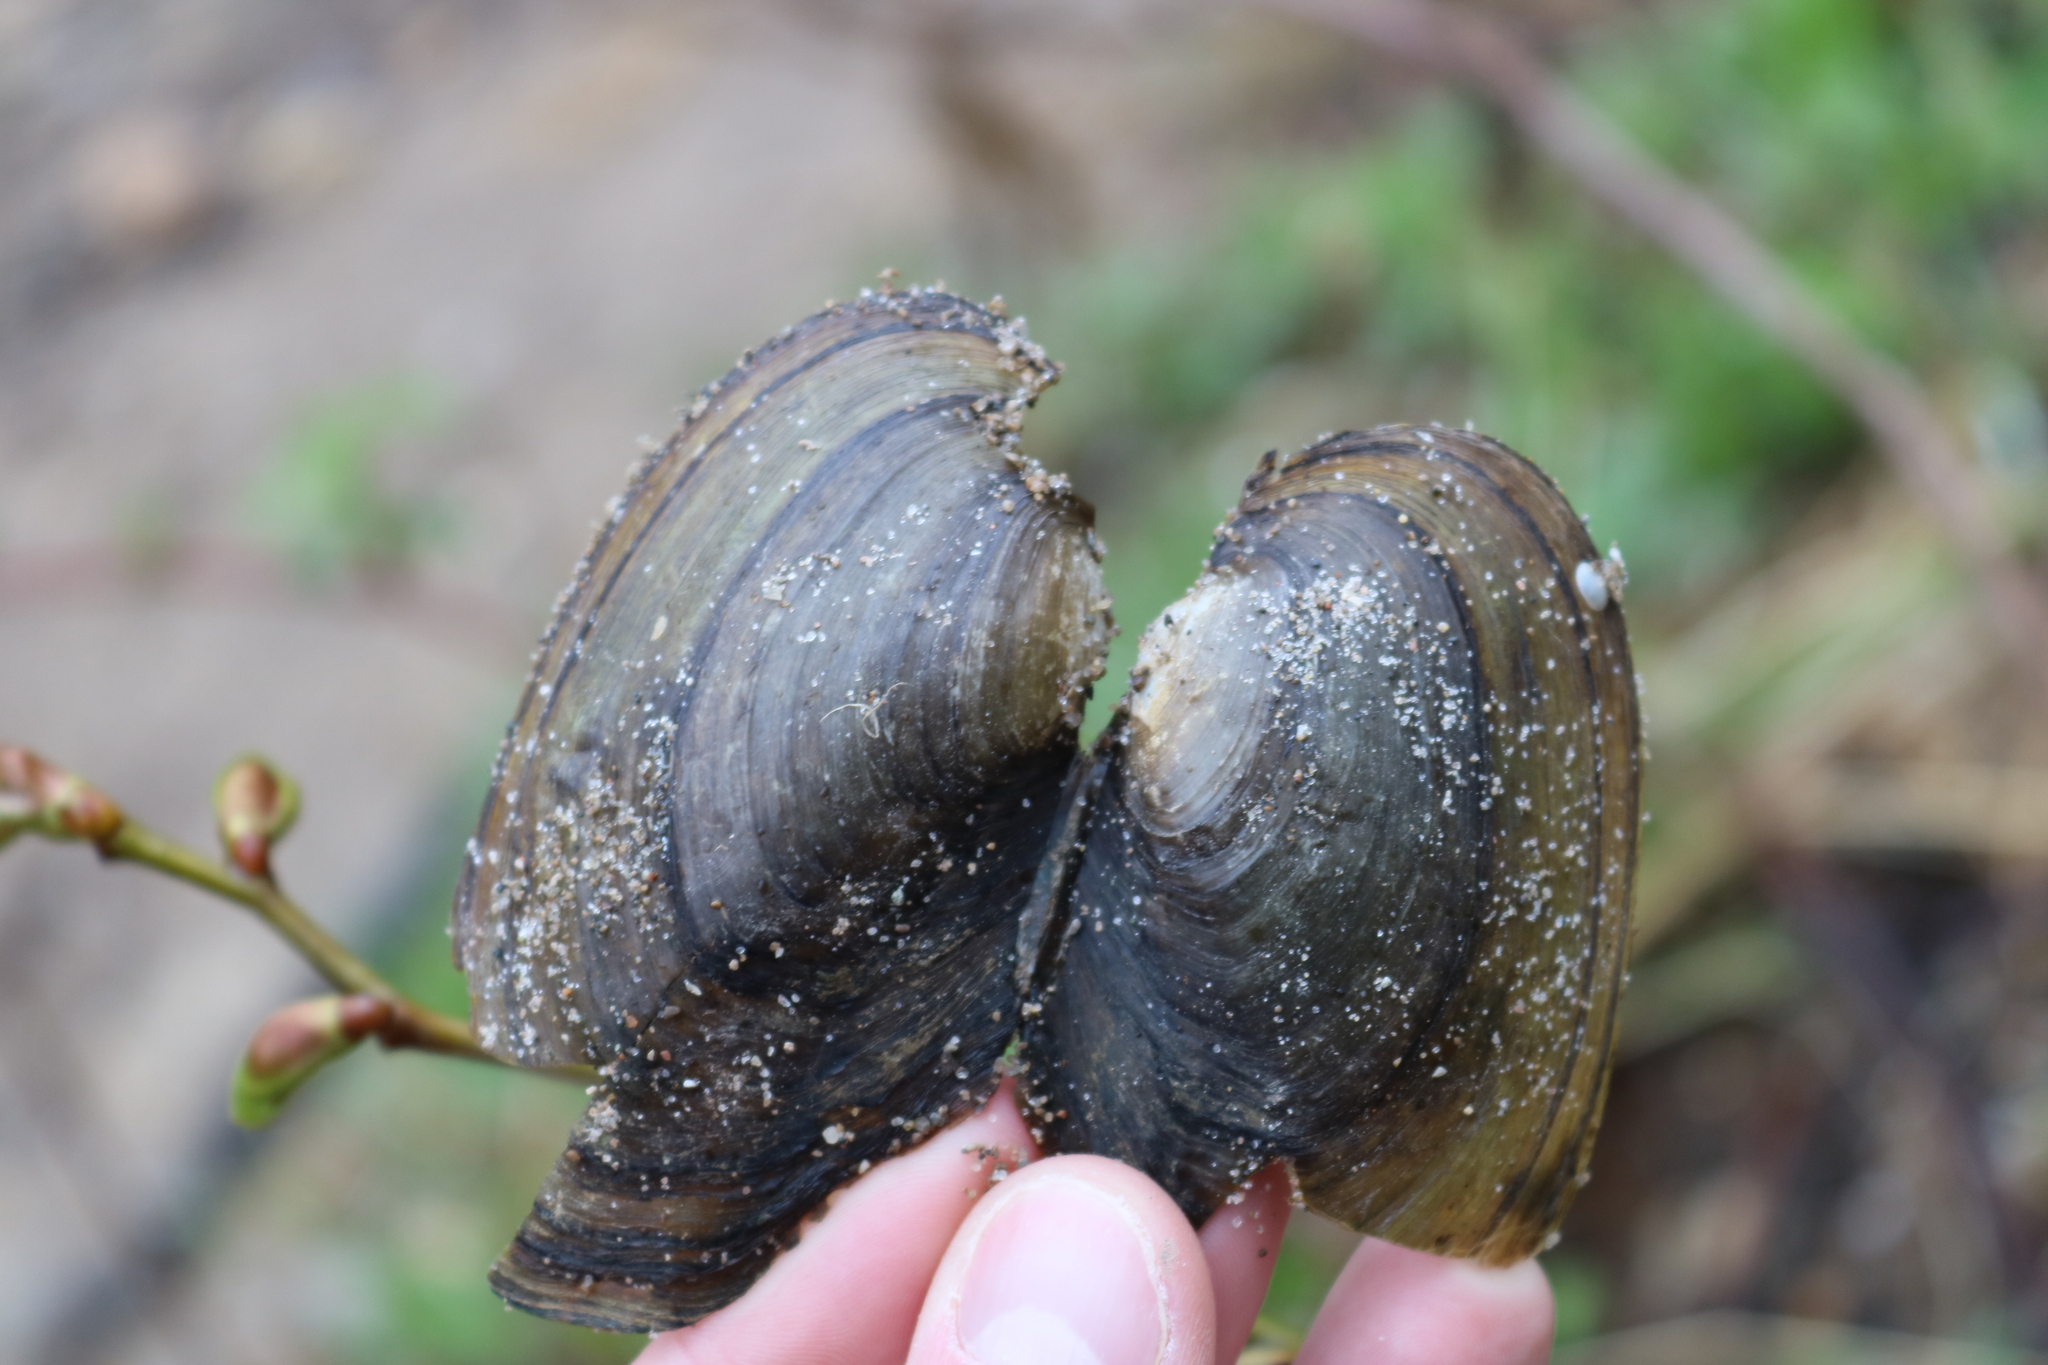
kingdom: Animalia
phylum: Mollusca
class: Bivalvia
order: Unionida
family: Unionidae
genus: Pyganodon
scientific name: Pyganodon grandis
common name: Giant floater
